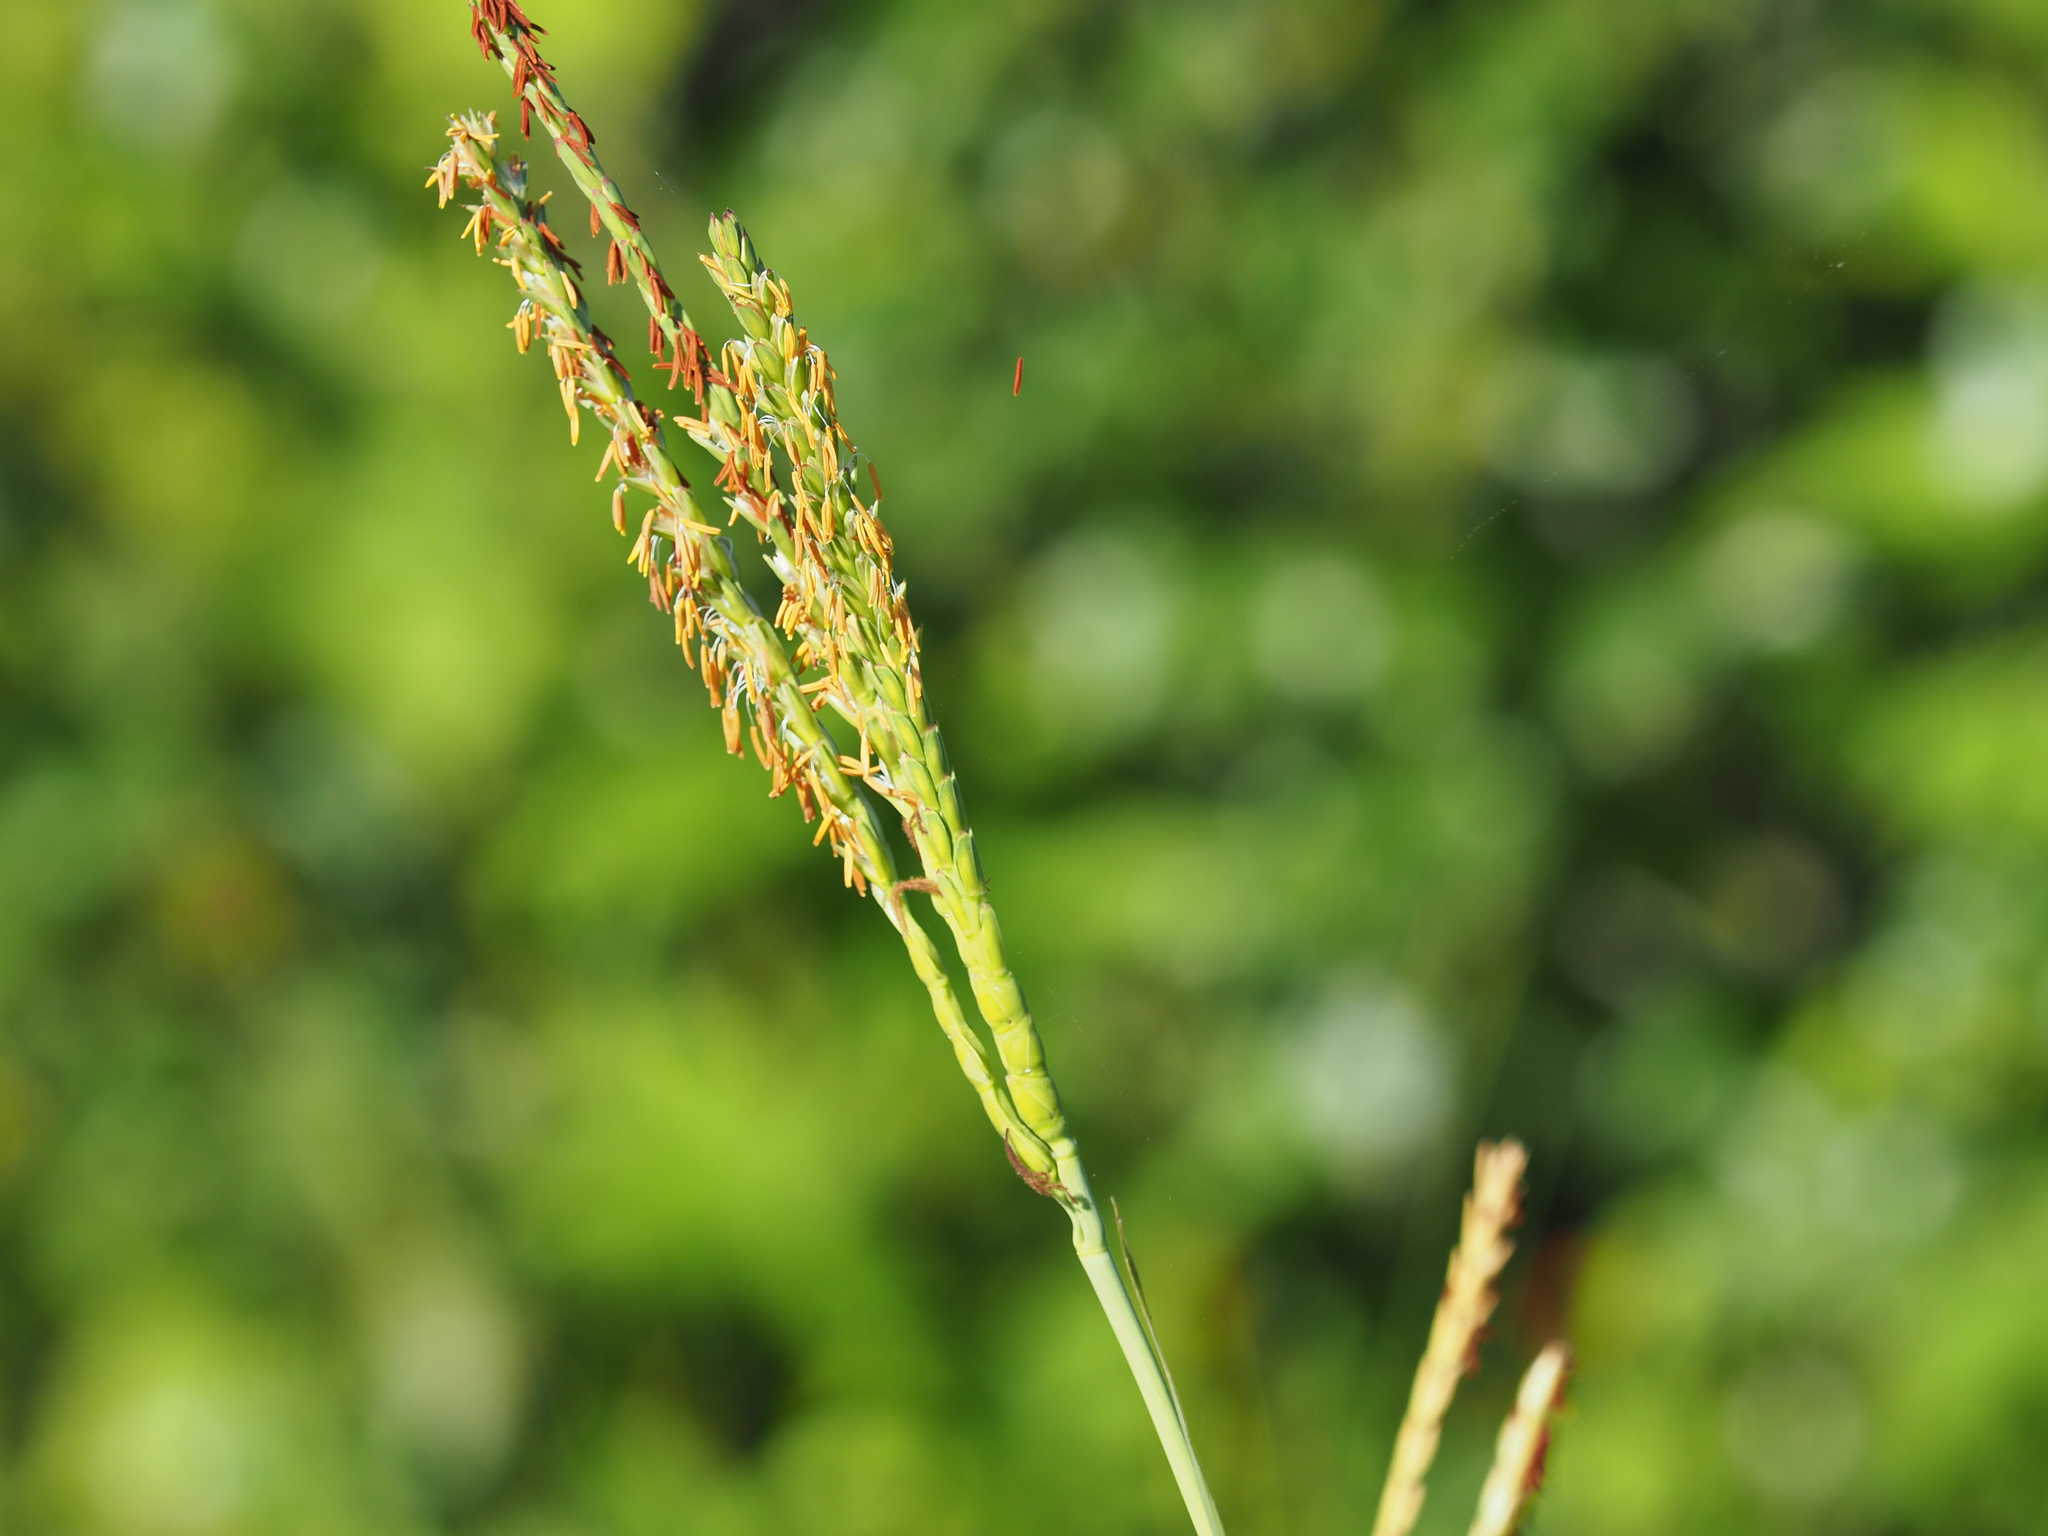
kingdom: Plantae
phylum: Tracheophyta
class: Liliopsida
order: Poales
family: Poaceae
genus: Tripsacum
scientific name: Tripsacum dactyloides
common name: Buffalo-grass
